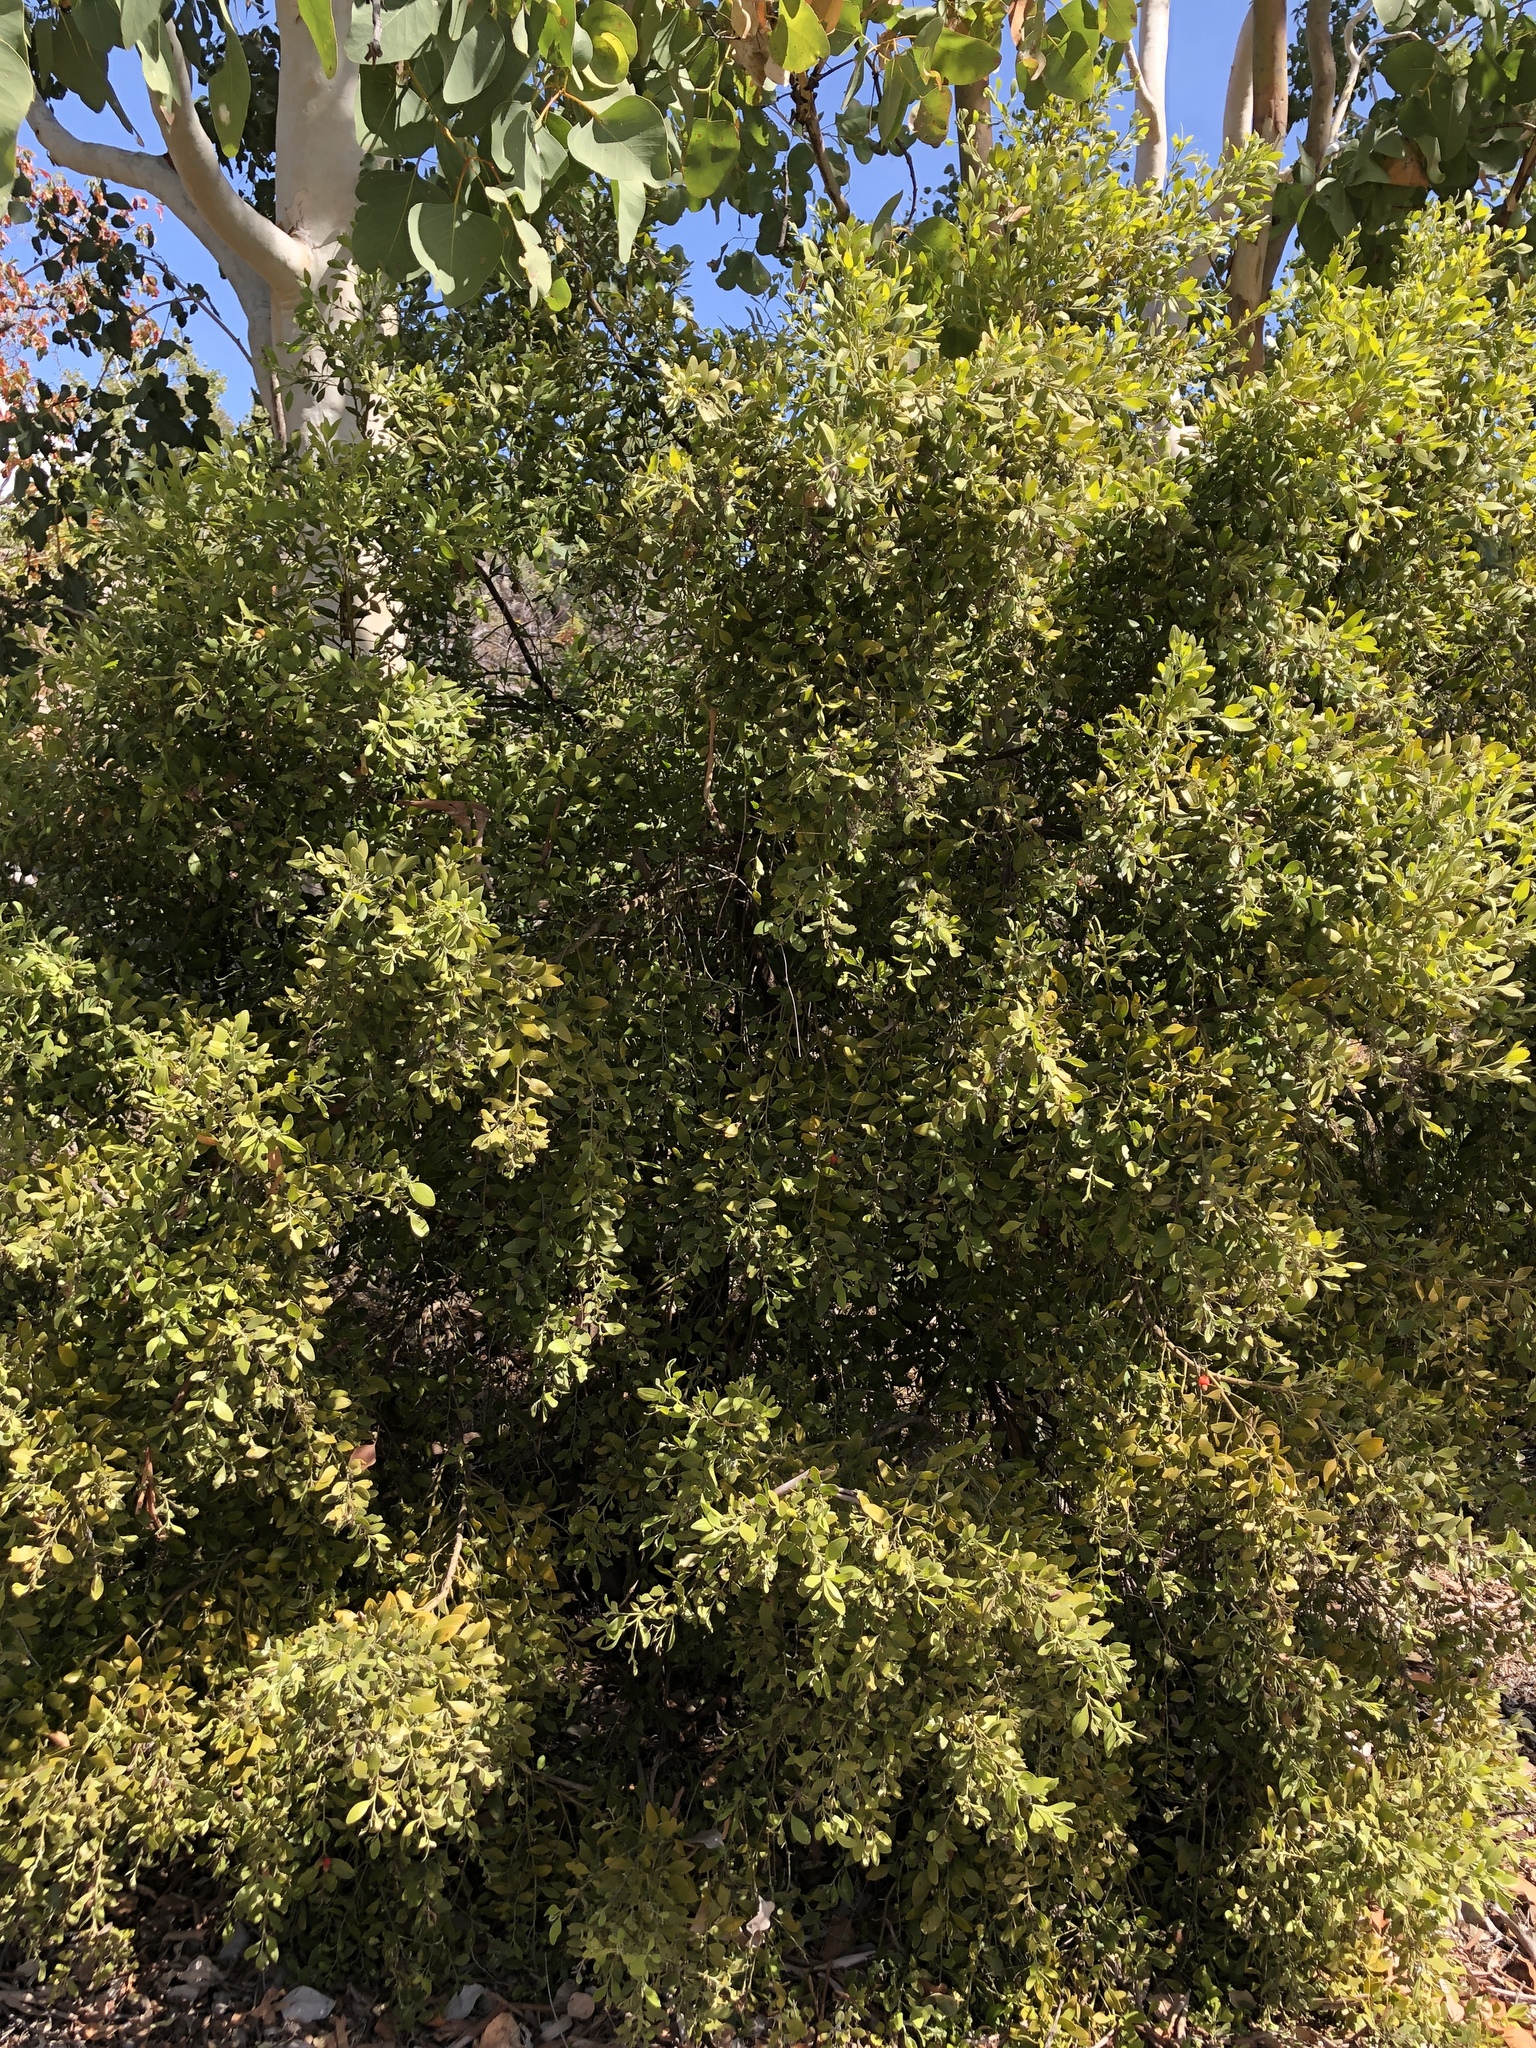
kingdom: Plantae
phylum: Tracheophyta
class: Magnoliopsida
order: Santalales
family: Santalaceae
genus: Exocarpos
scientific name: Exocarpos latifolius
